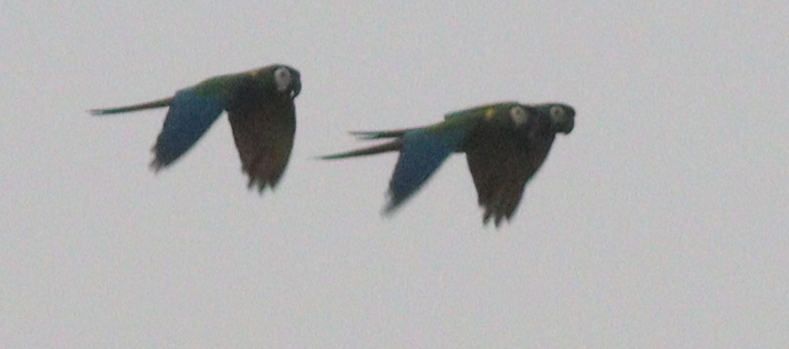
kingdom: Animalia
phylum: Chordata
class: Aves
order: Psittaciformes
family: Psittacidae
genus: Primolius
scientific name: Primolius auricollis
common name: Golden-collared macaw
